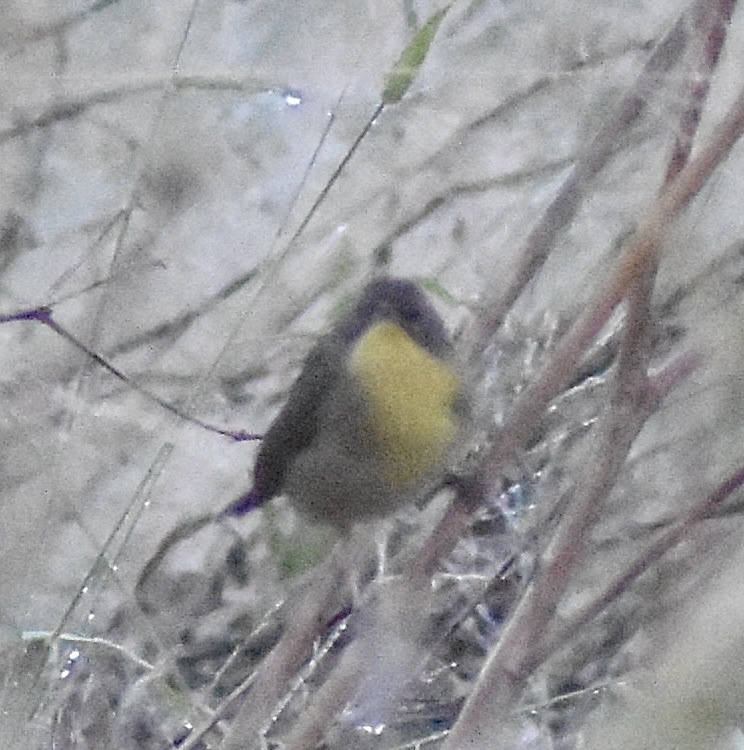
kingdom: Animalia
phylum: Chordata
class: Aves
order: Passeriformes
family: Parulidae
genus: Geothlypis
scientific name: Geothlypis trichas
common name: Common yellowthroat
